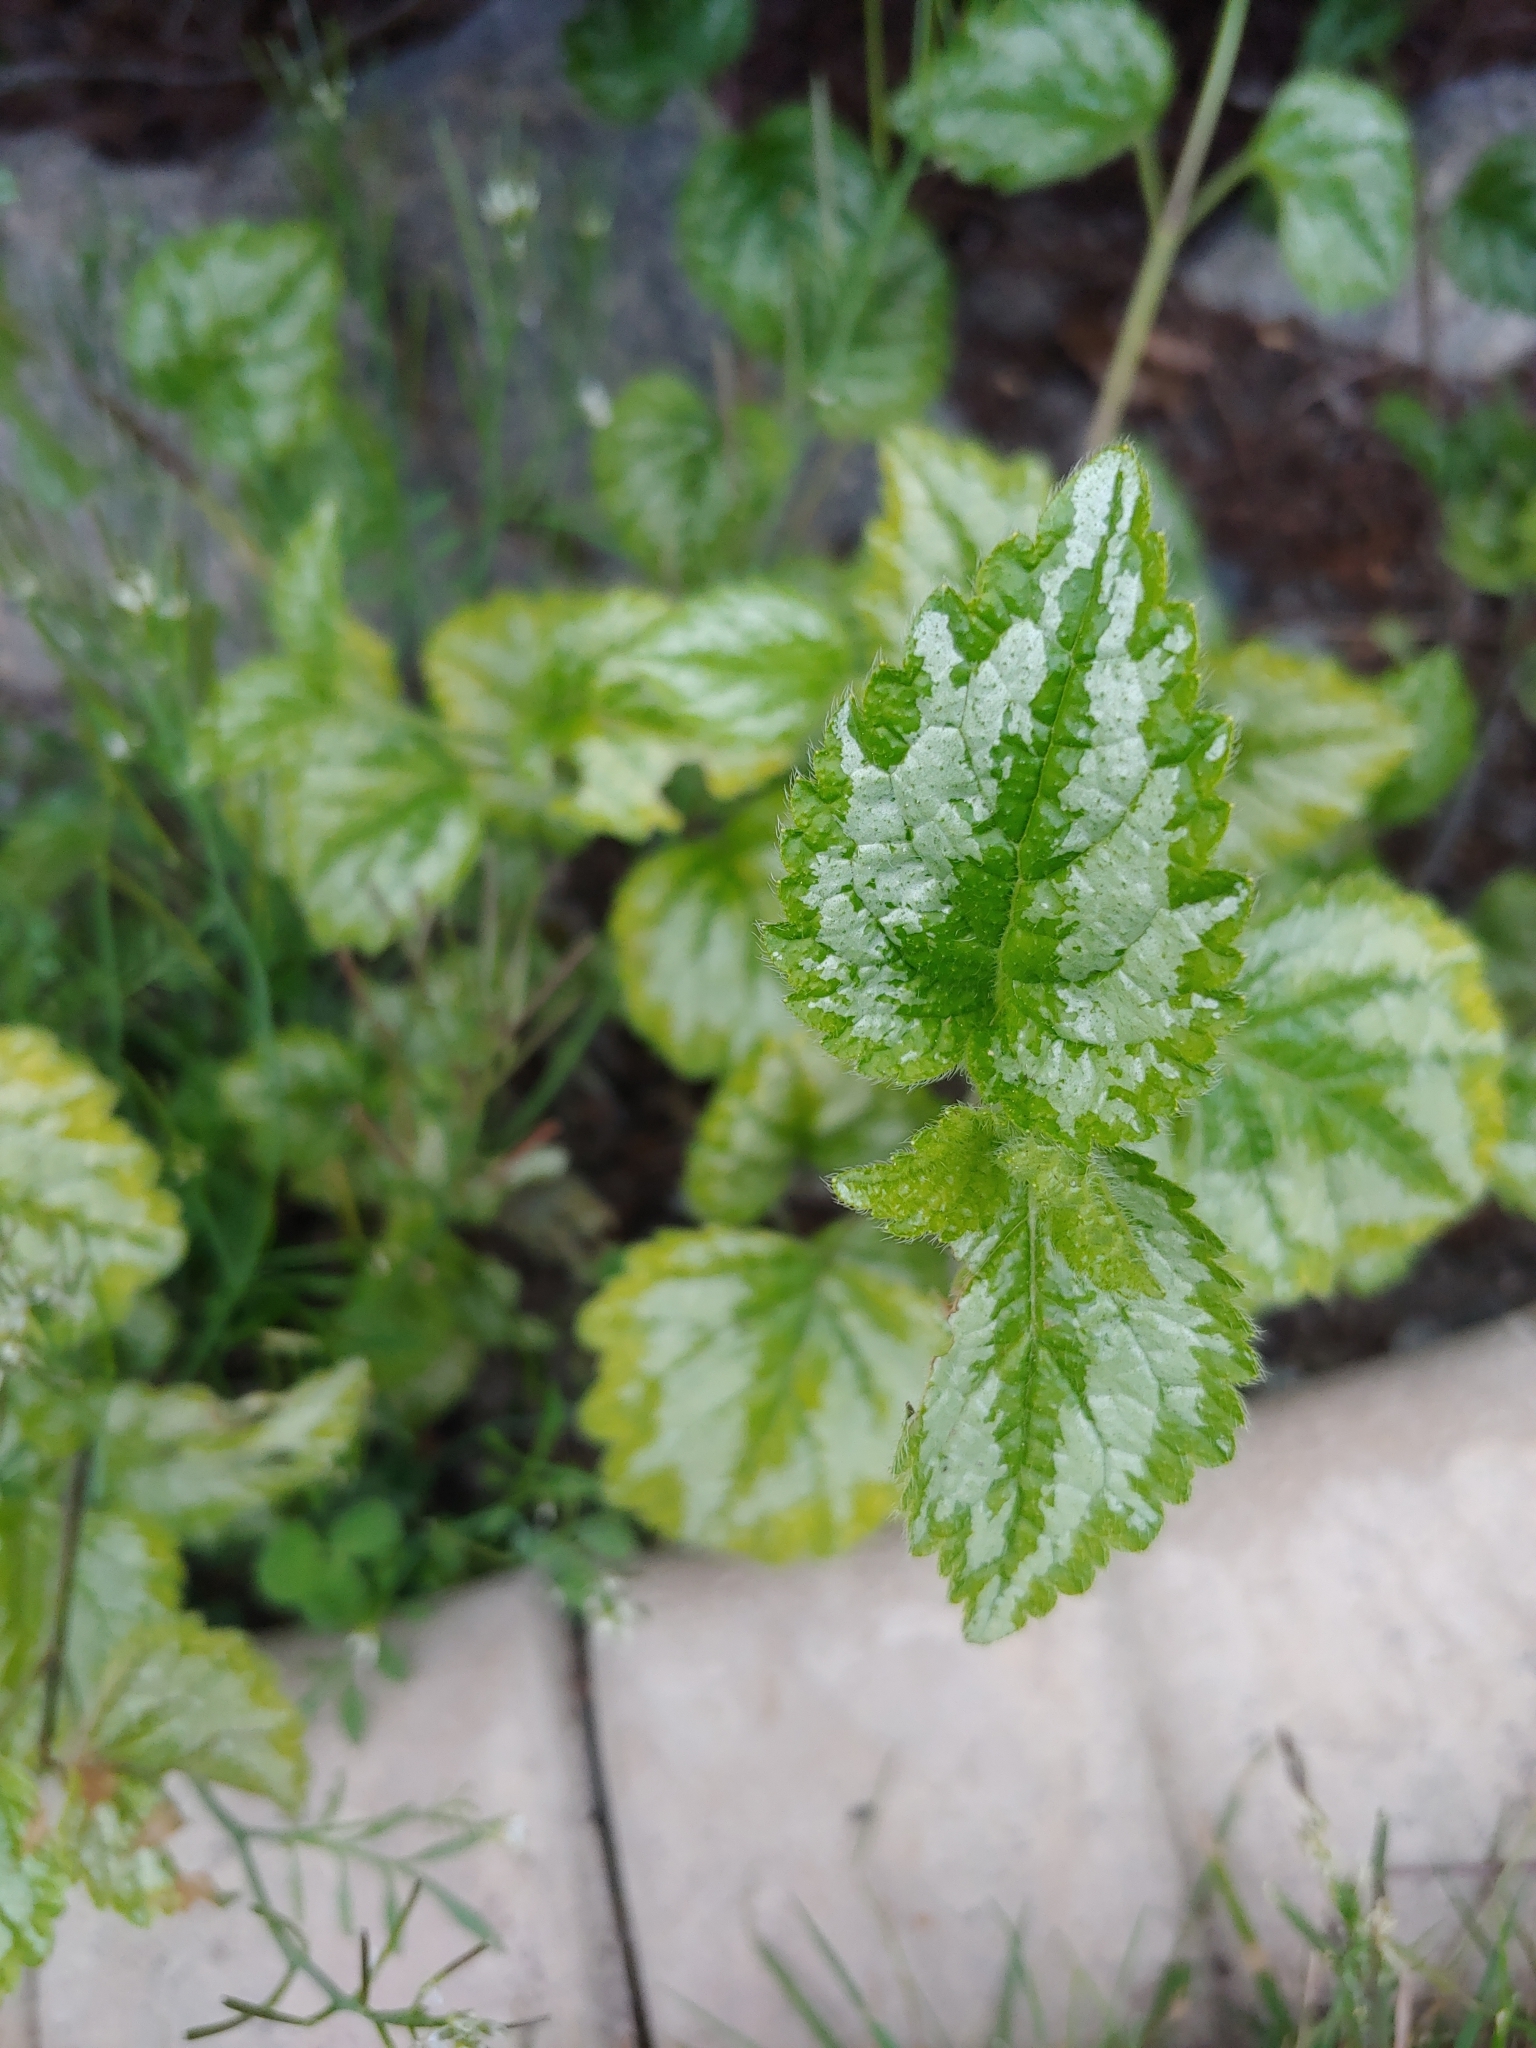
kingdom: Plantae
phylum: Tracheophyta
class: Magnoliopsida
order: Lamiales
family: Lamiaceae
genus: Lamium
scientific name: Lamium galeobdolon
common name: Yellow archangel
